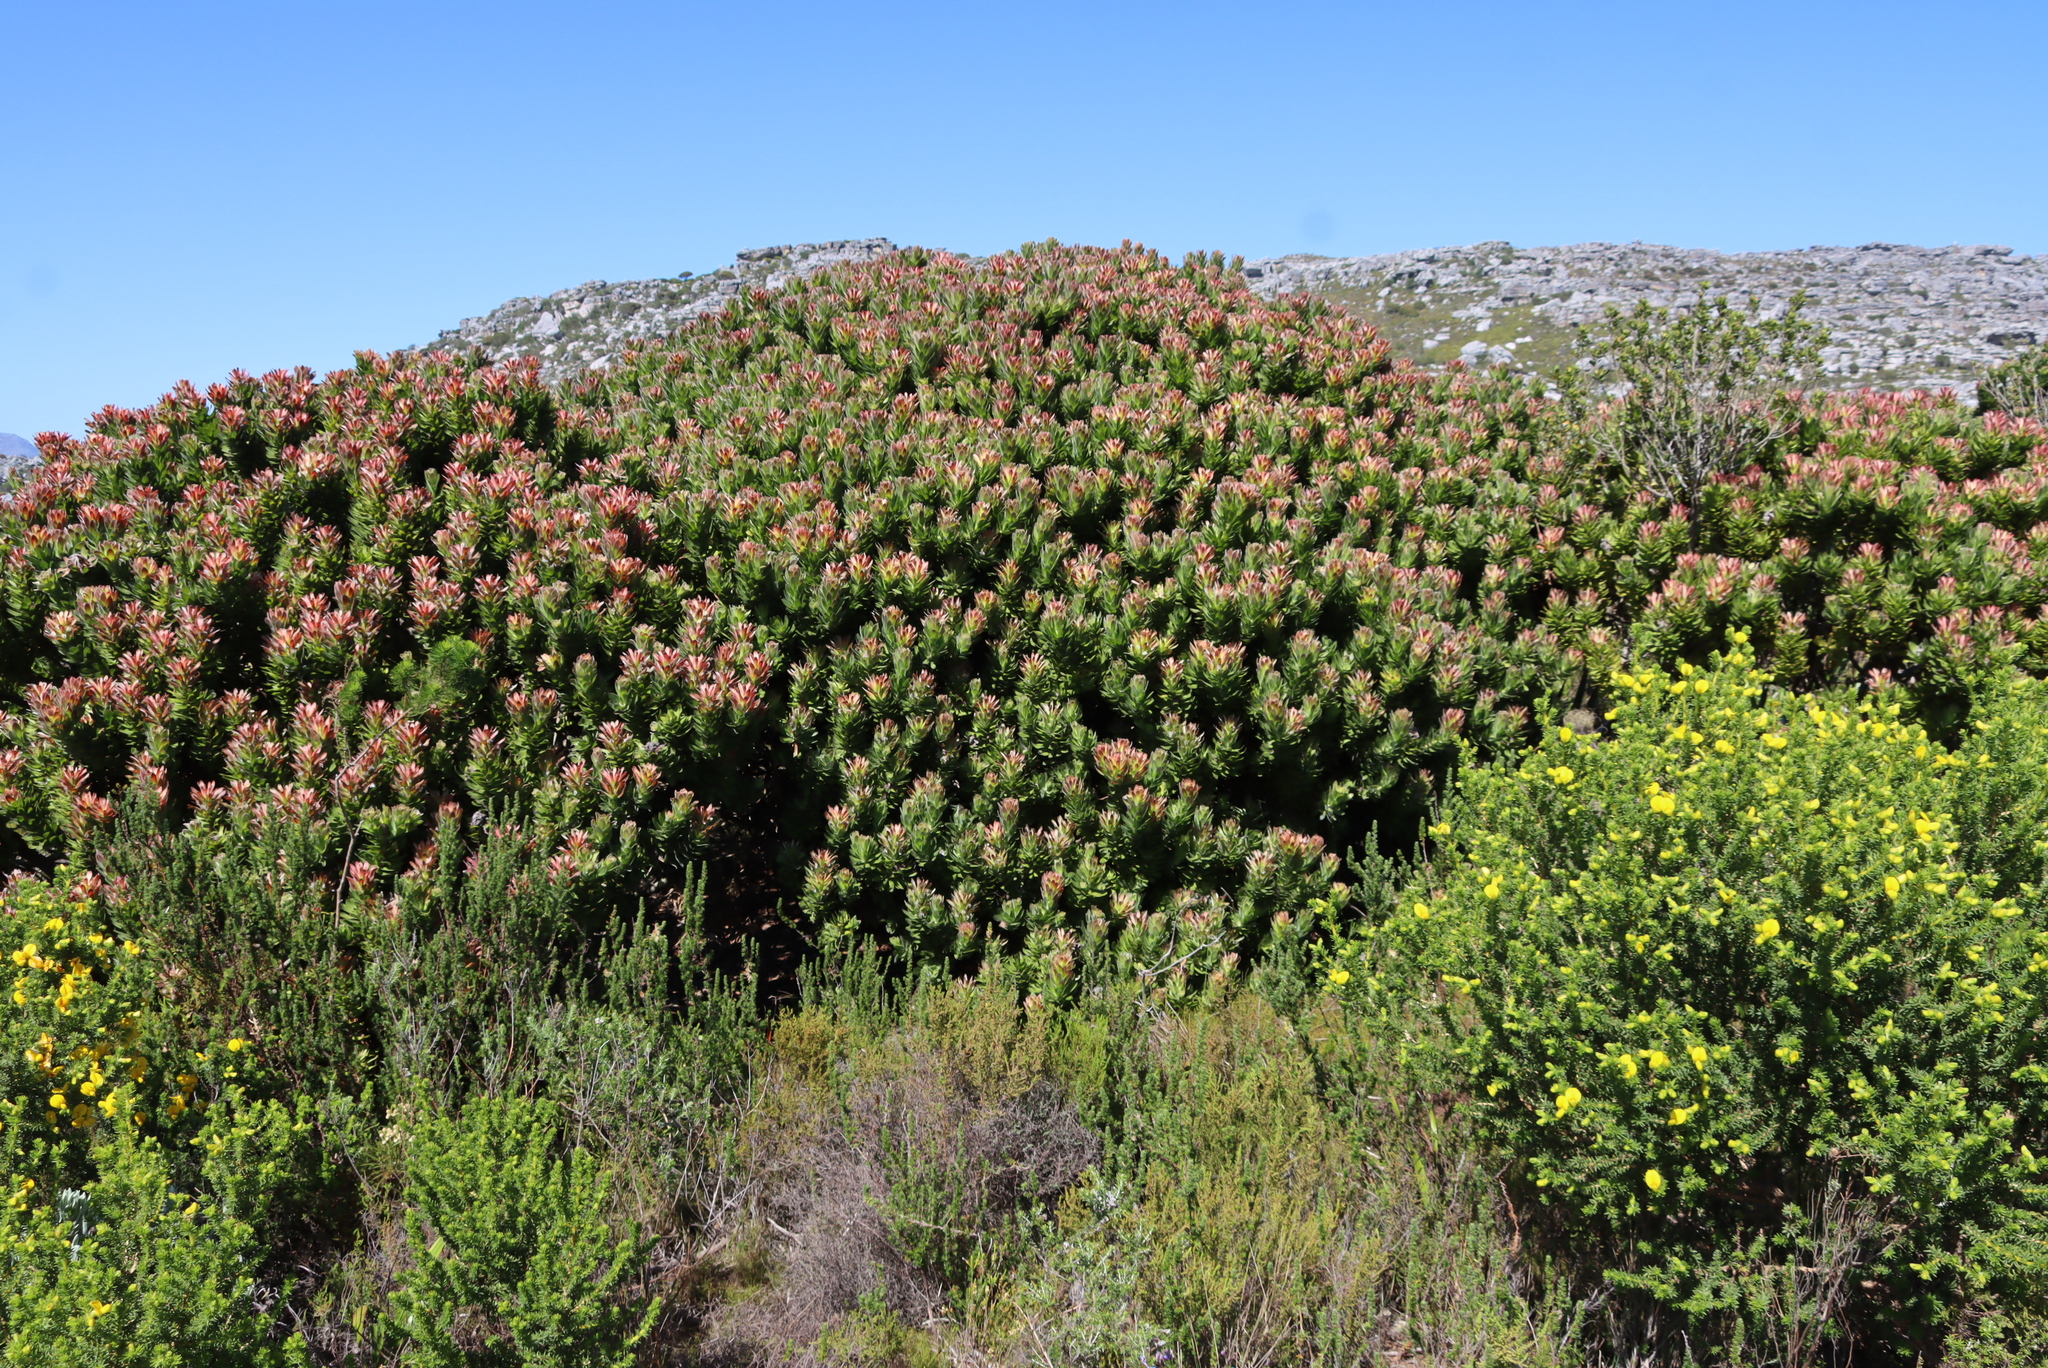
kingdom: Plantae
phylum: Tracheophyta
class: Magnoliopsida
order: Proteales
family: Proteaceae
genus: Mimetes
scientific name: Mimetes fimbriifolius
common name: Fringed bottlebrush
